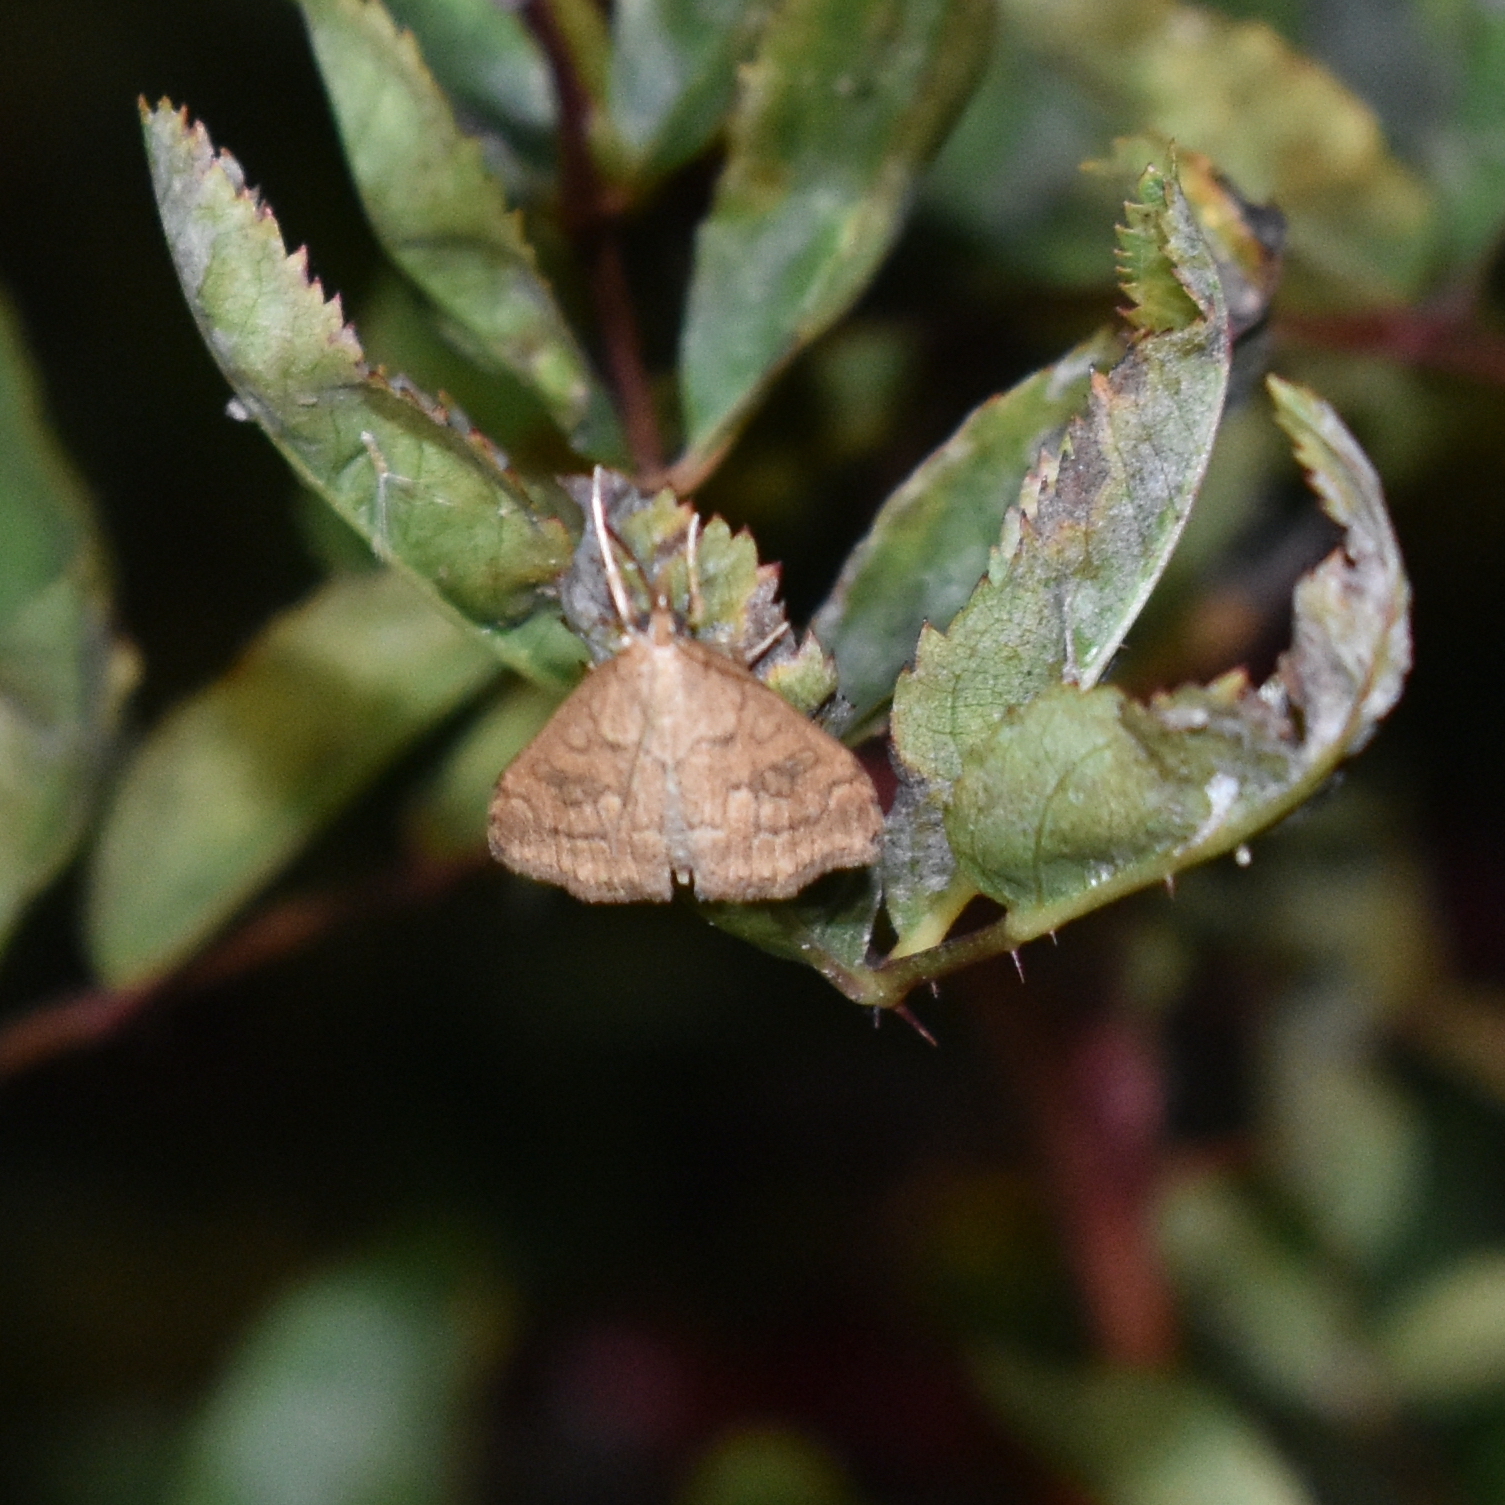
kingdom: Animalia
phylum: Arthropoda
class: Insecta
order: Lepidoptera
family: Crambidae
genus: Udea
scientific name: Udea profundalis
